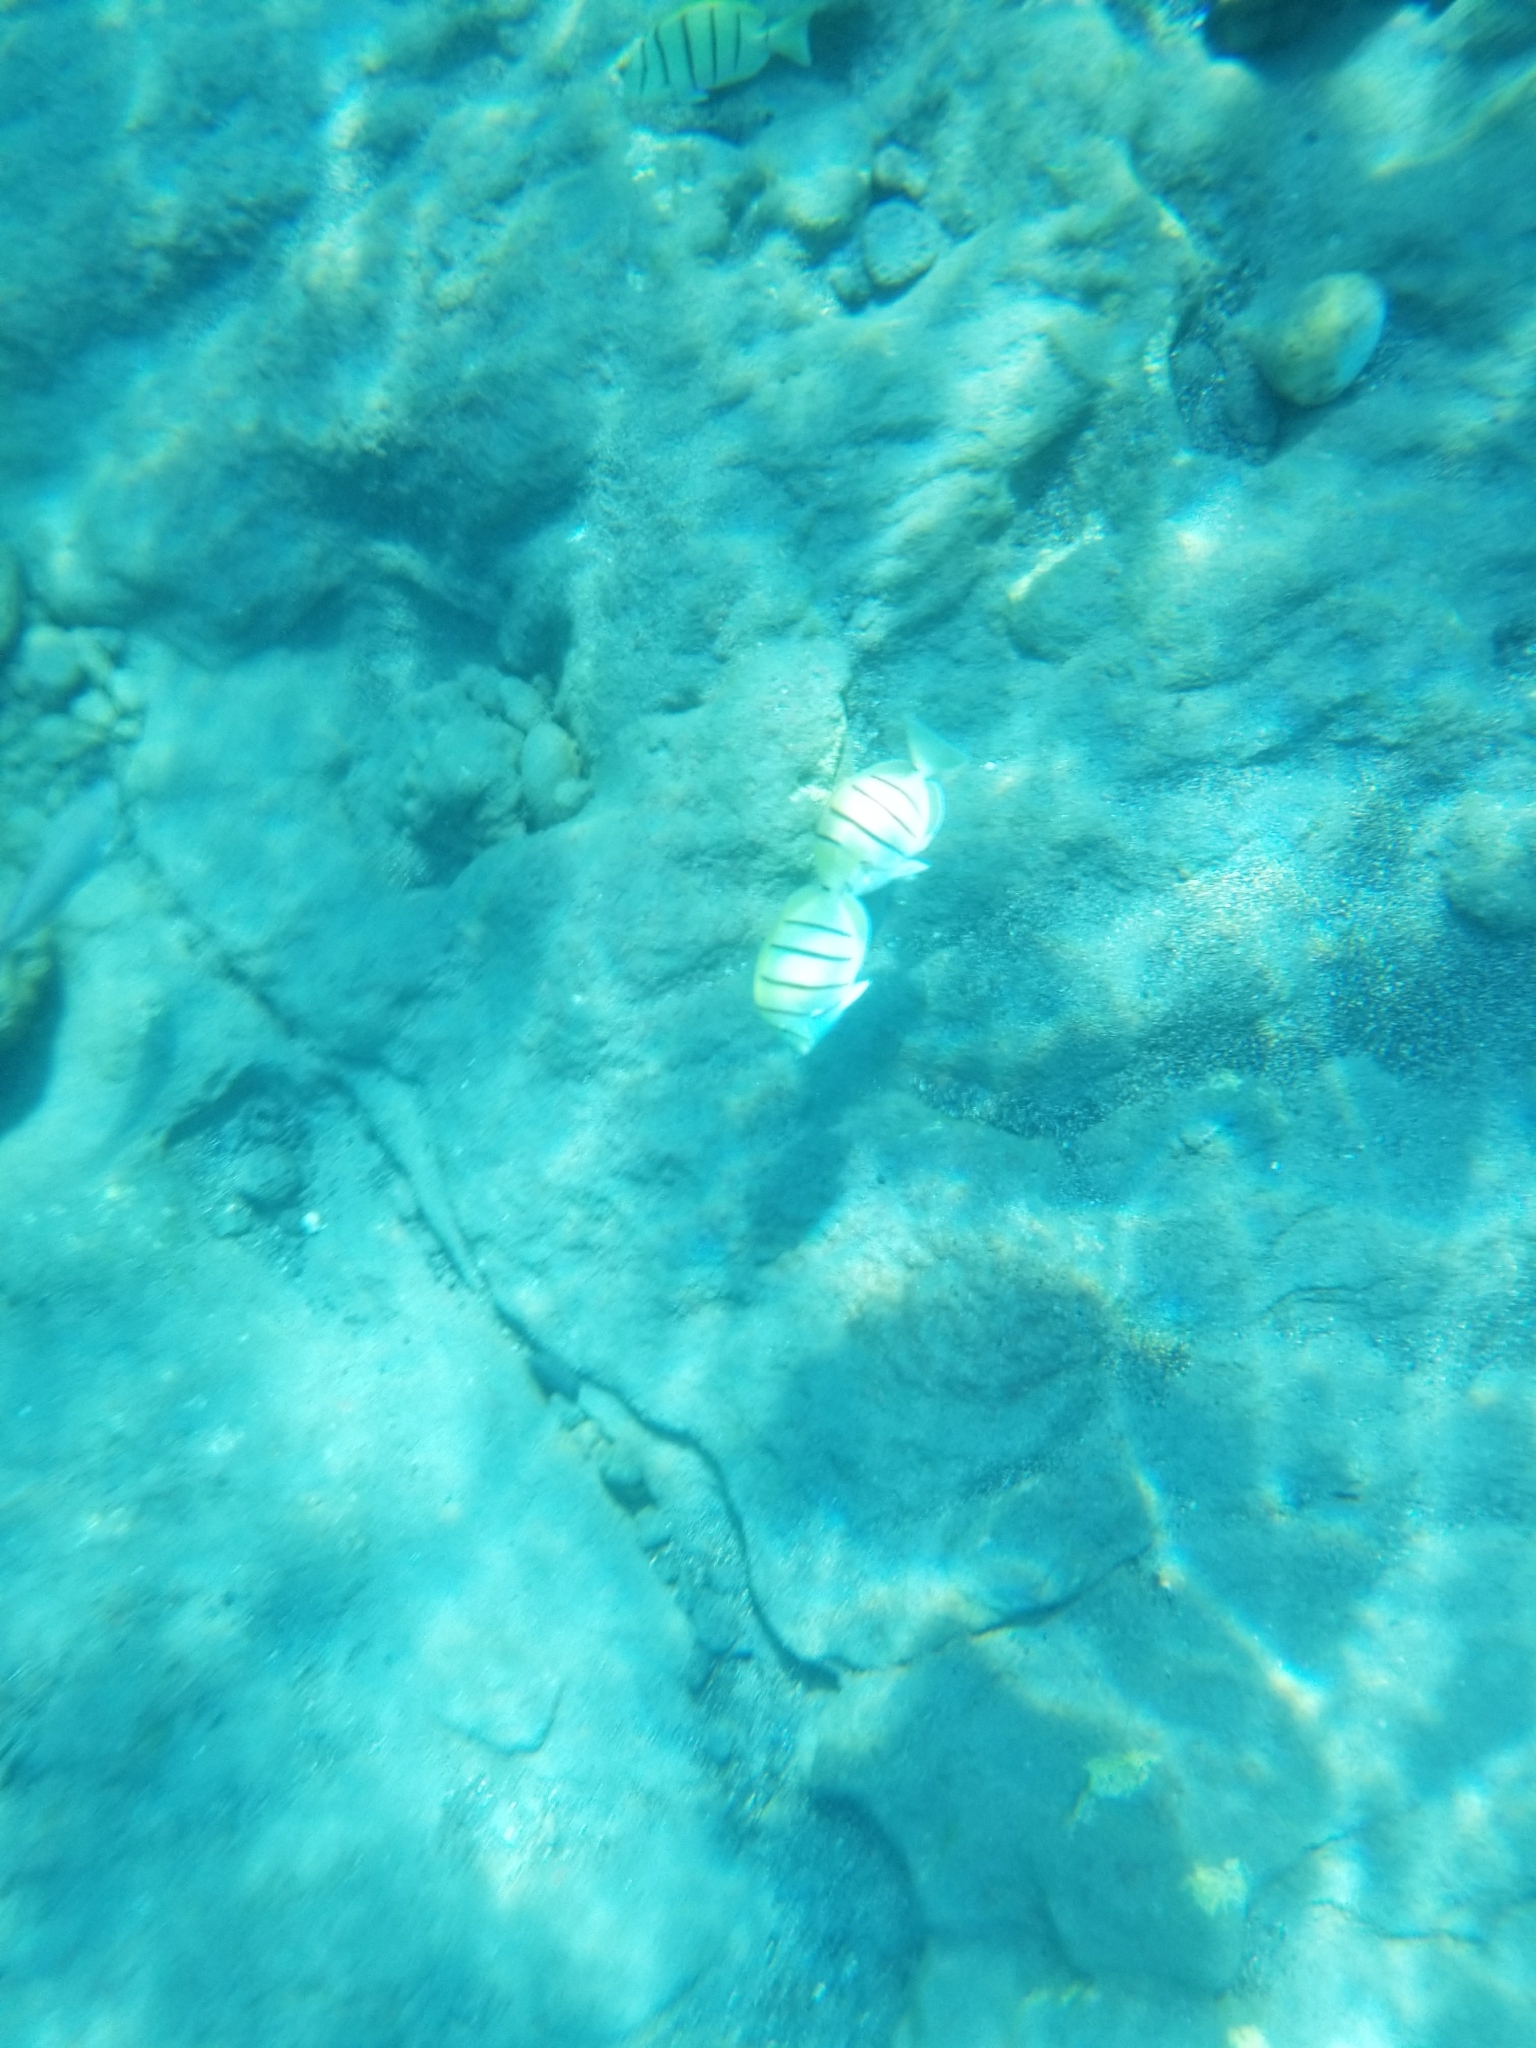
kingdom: Animalia
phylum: Chordata
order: Perciformes
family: Acanthuridae
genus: Acanthurus
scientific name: Acanthurus triostegus
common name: Convict surgeonfish
